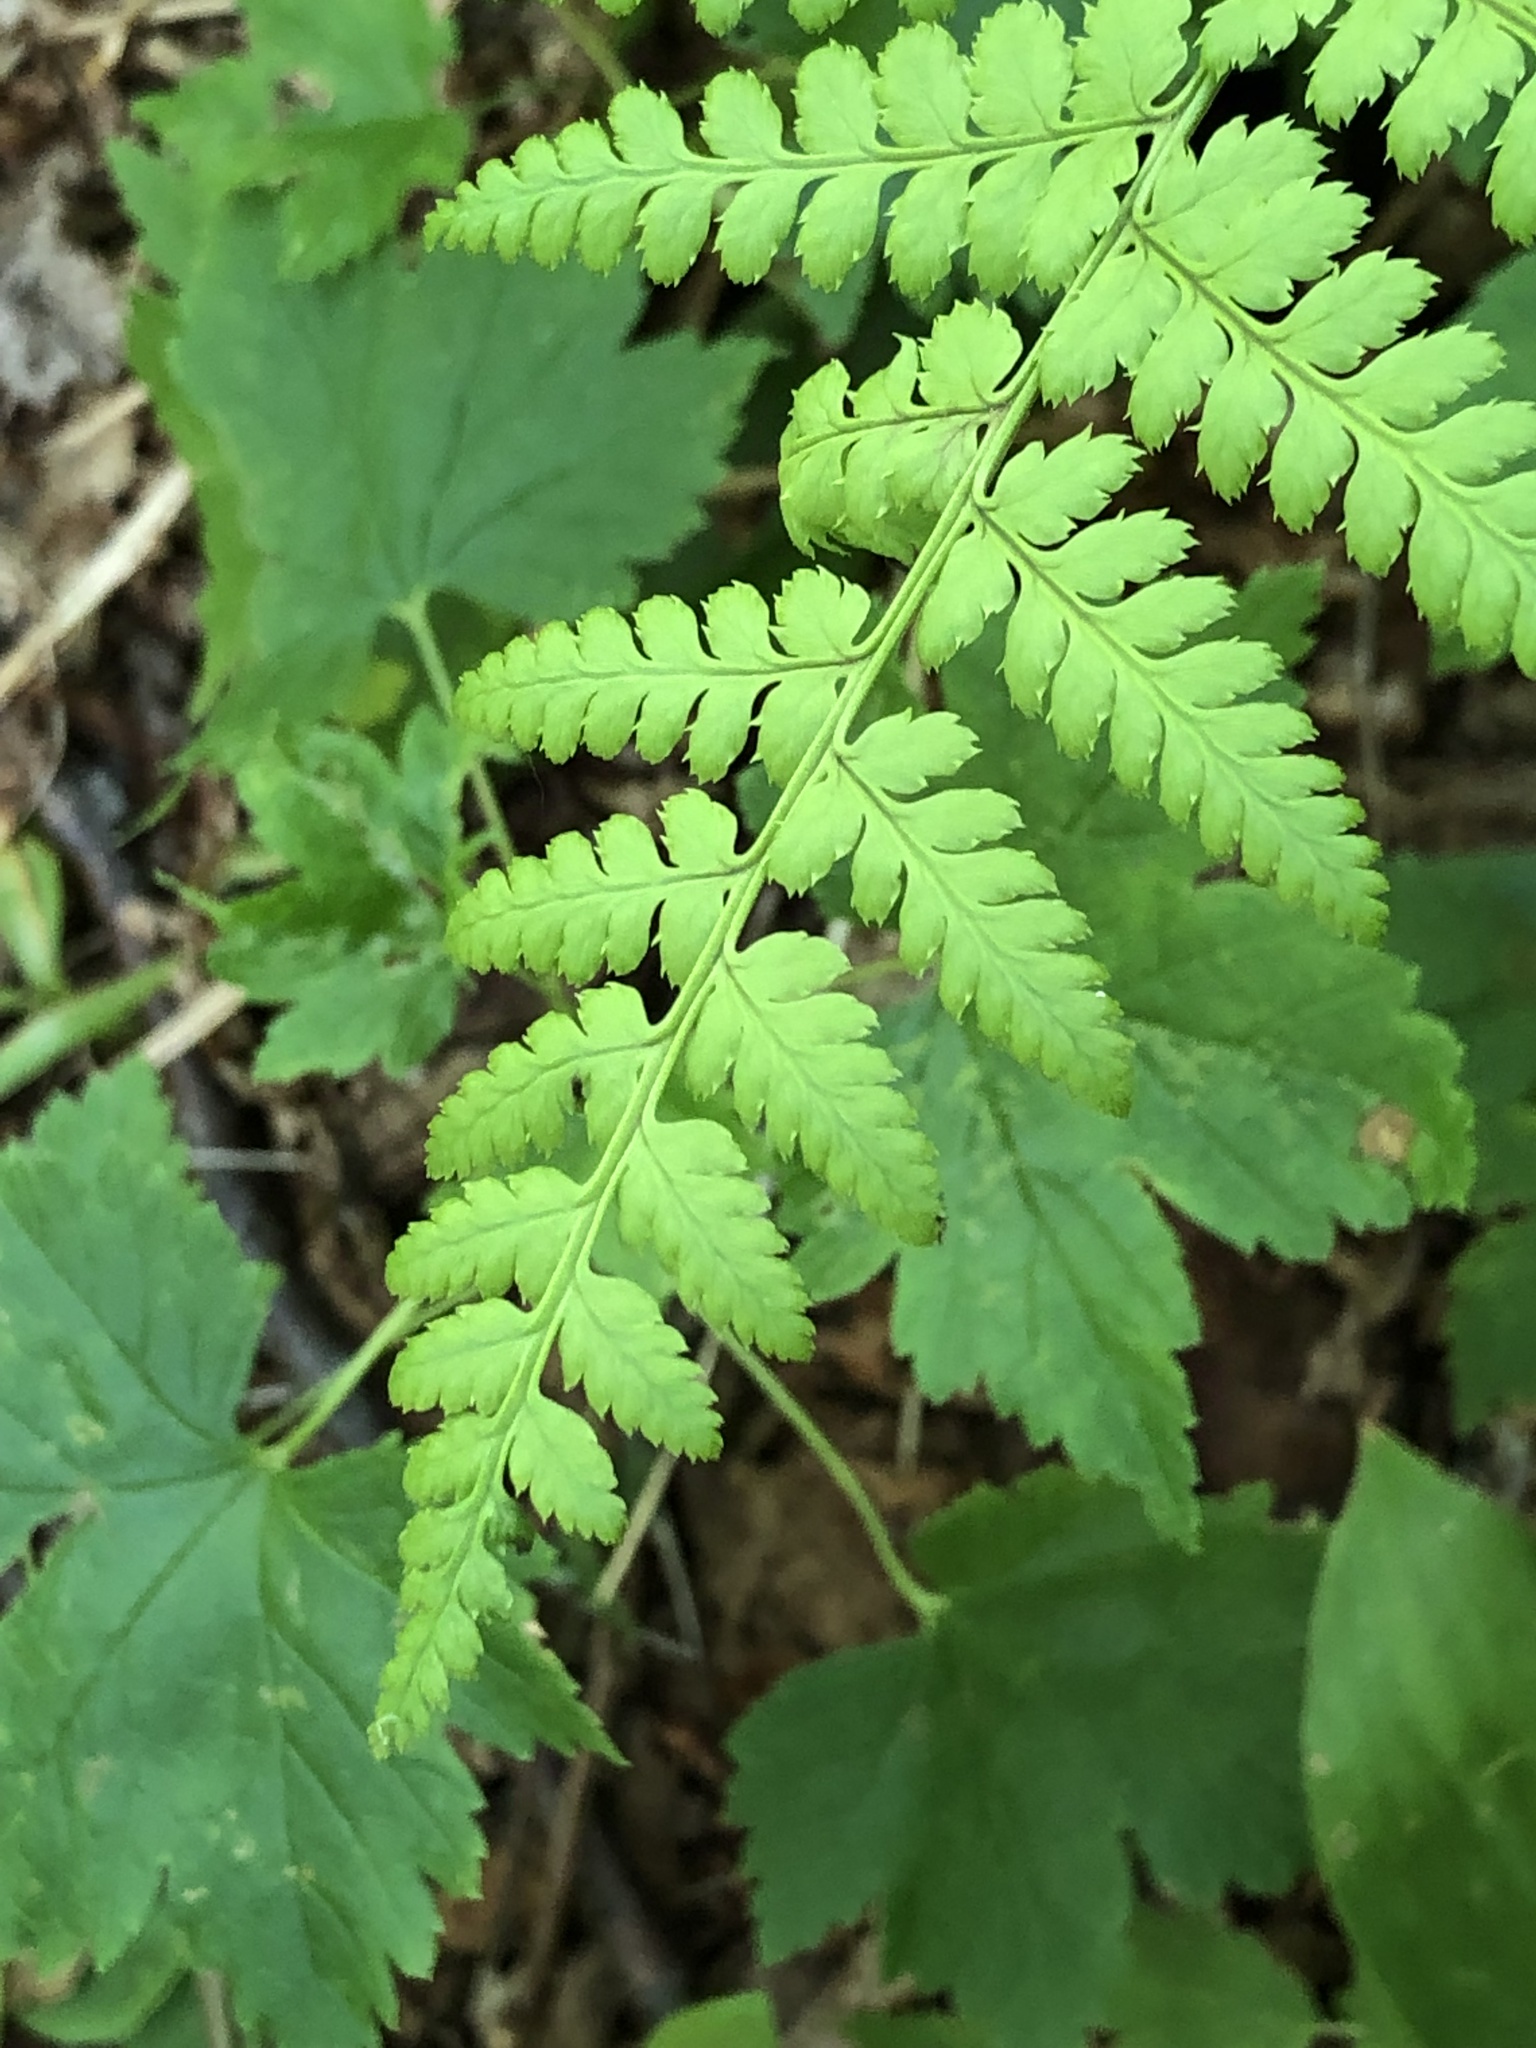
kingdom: Plantae
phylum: Tracheophyta
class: Polypodiopsida
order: Polypodiales
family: Dryopteridaceae
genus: Dryopteris
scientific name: Dryopteris
